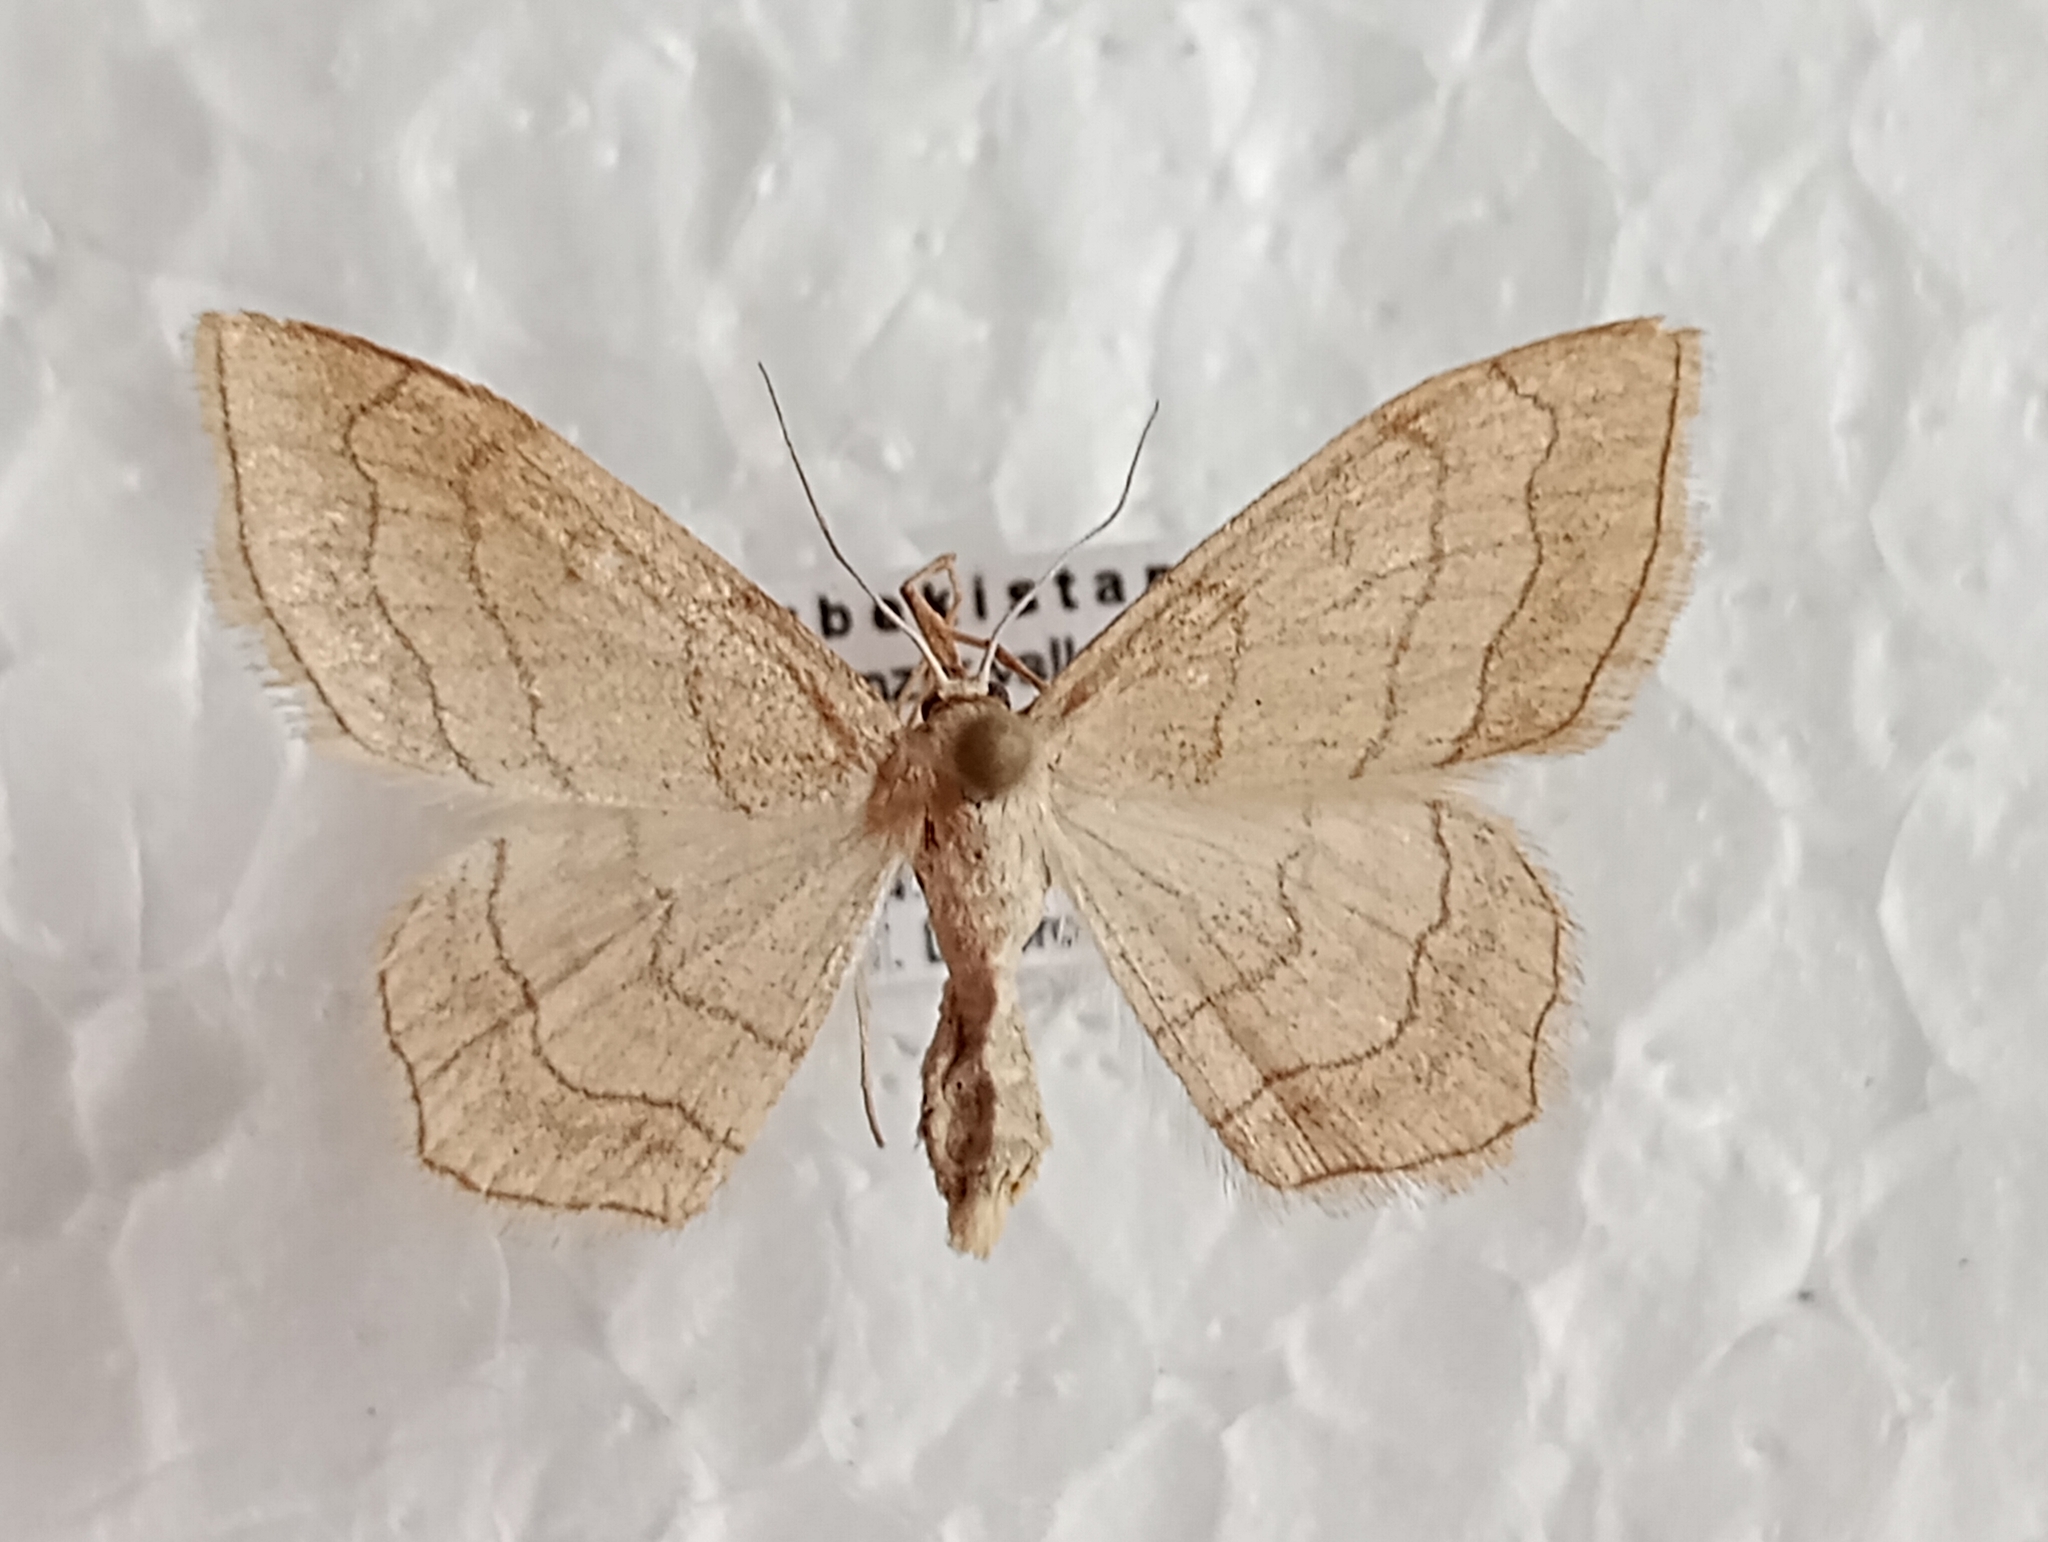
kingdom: Animalia
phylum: Arthropoda
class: Insecta
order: Lepidoptera
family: Geometridae
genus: Scopula
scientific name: Scopula ansulata
